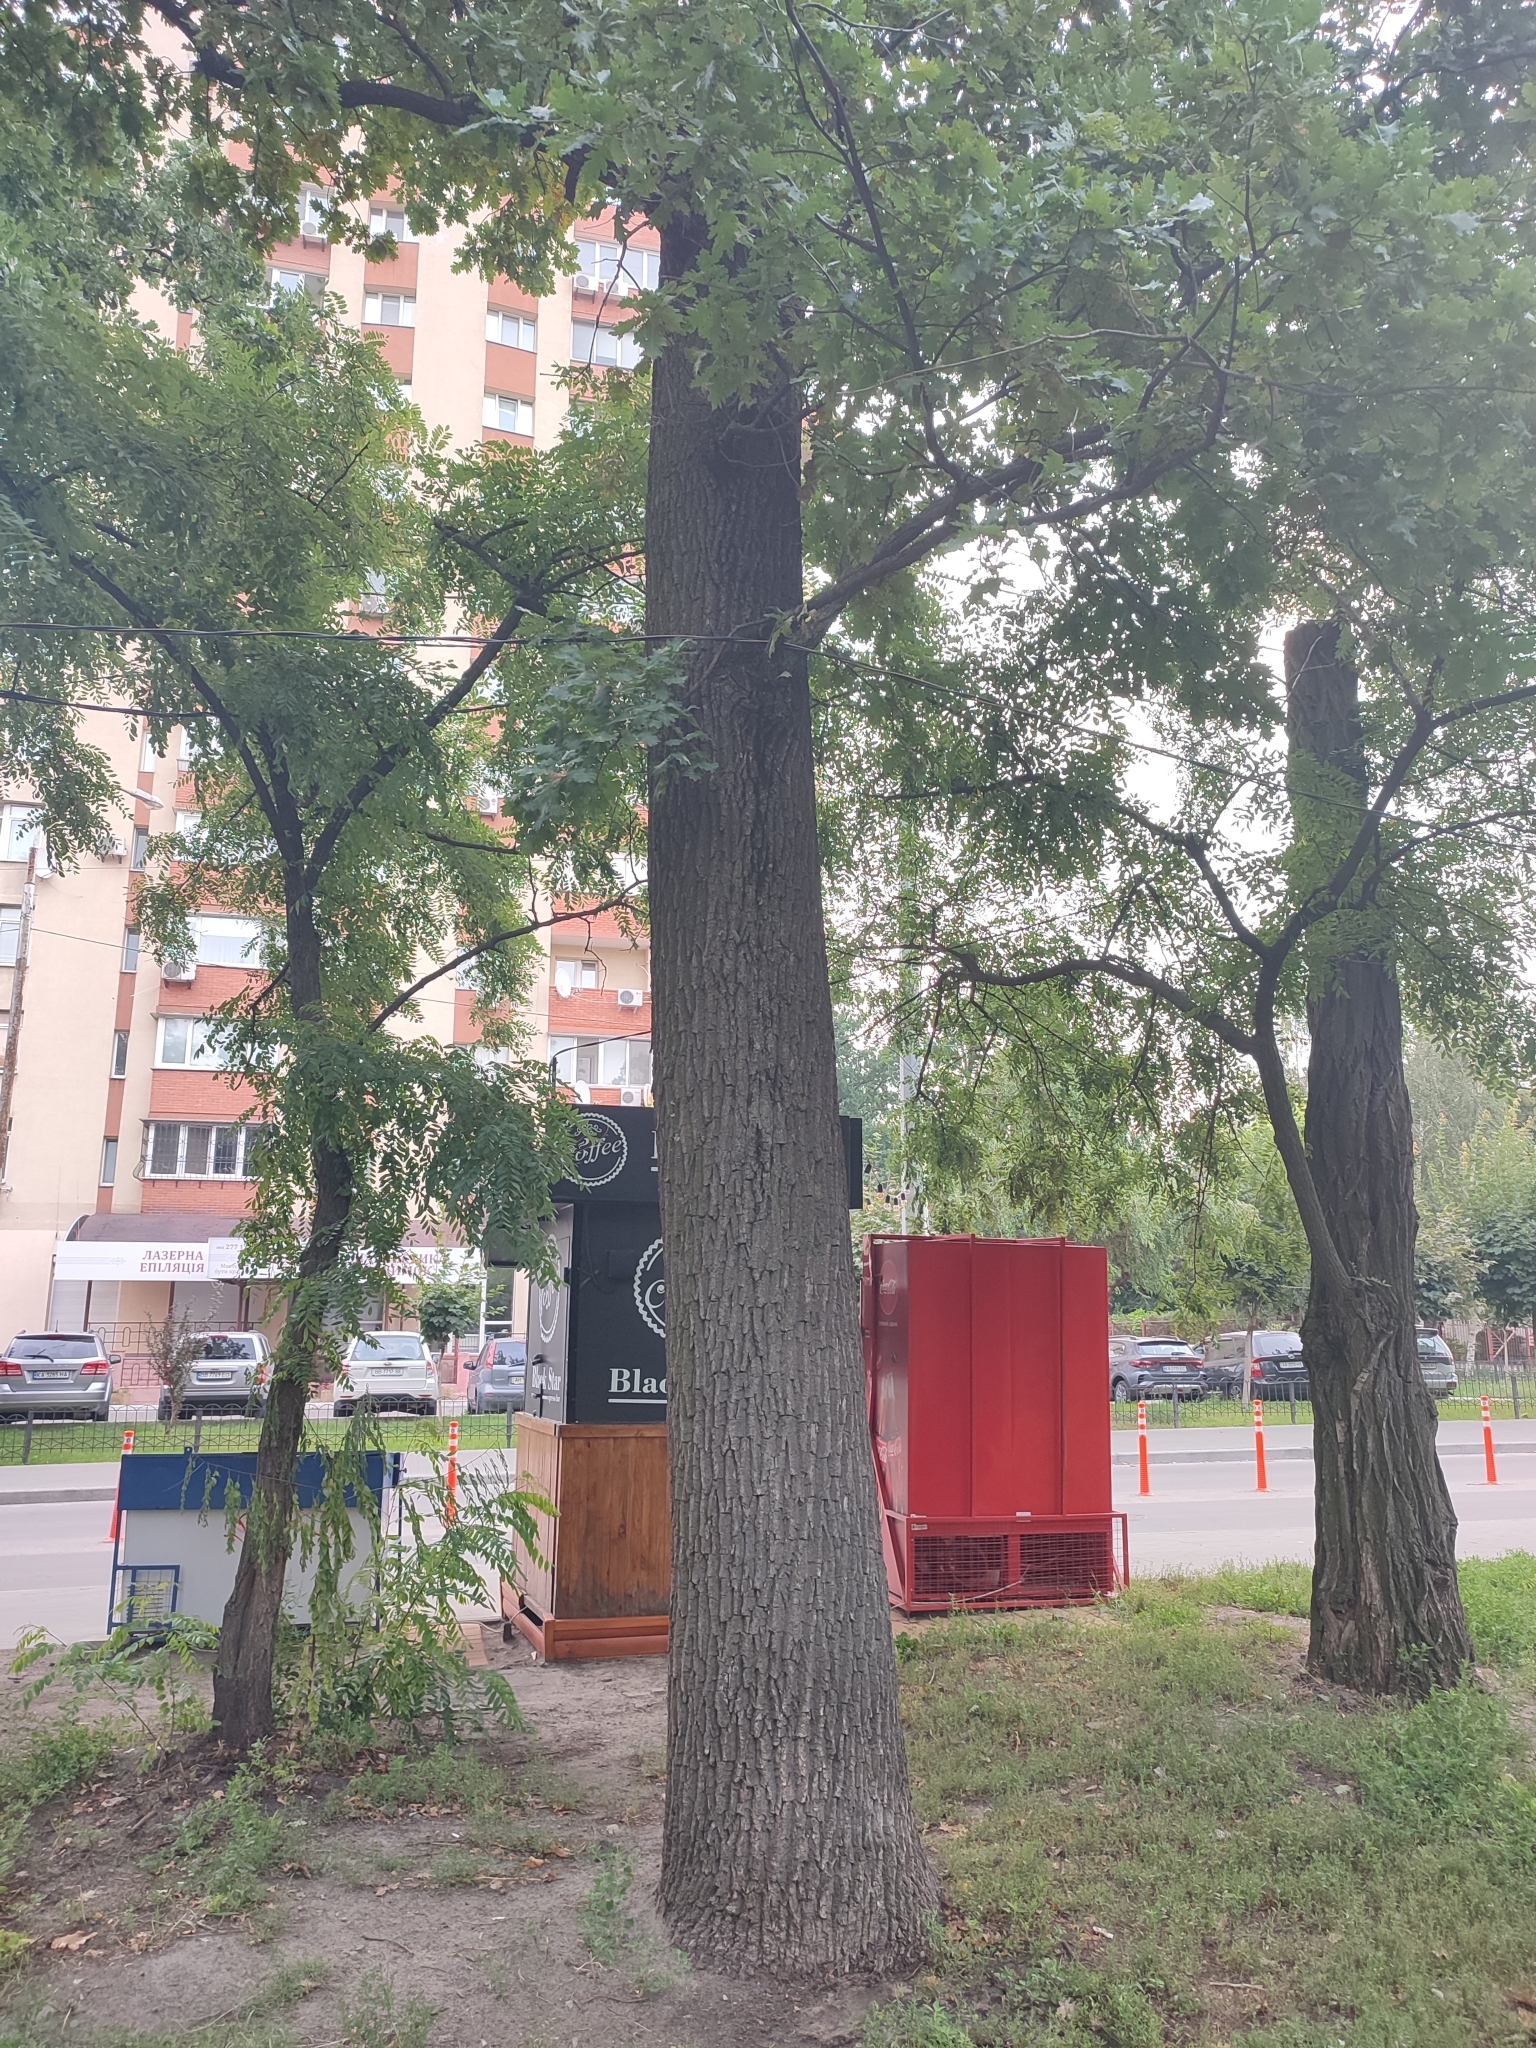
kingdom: Plantae
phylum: Tracheophyta
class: Magnoliopsida
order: Fagales
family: Fagaceae
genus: Quercus
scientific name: Quercus robur
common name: Pedunculate oak
